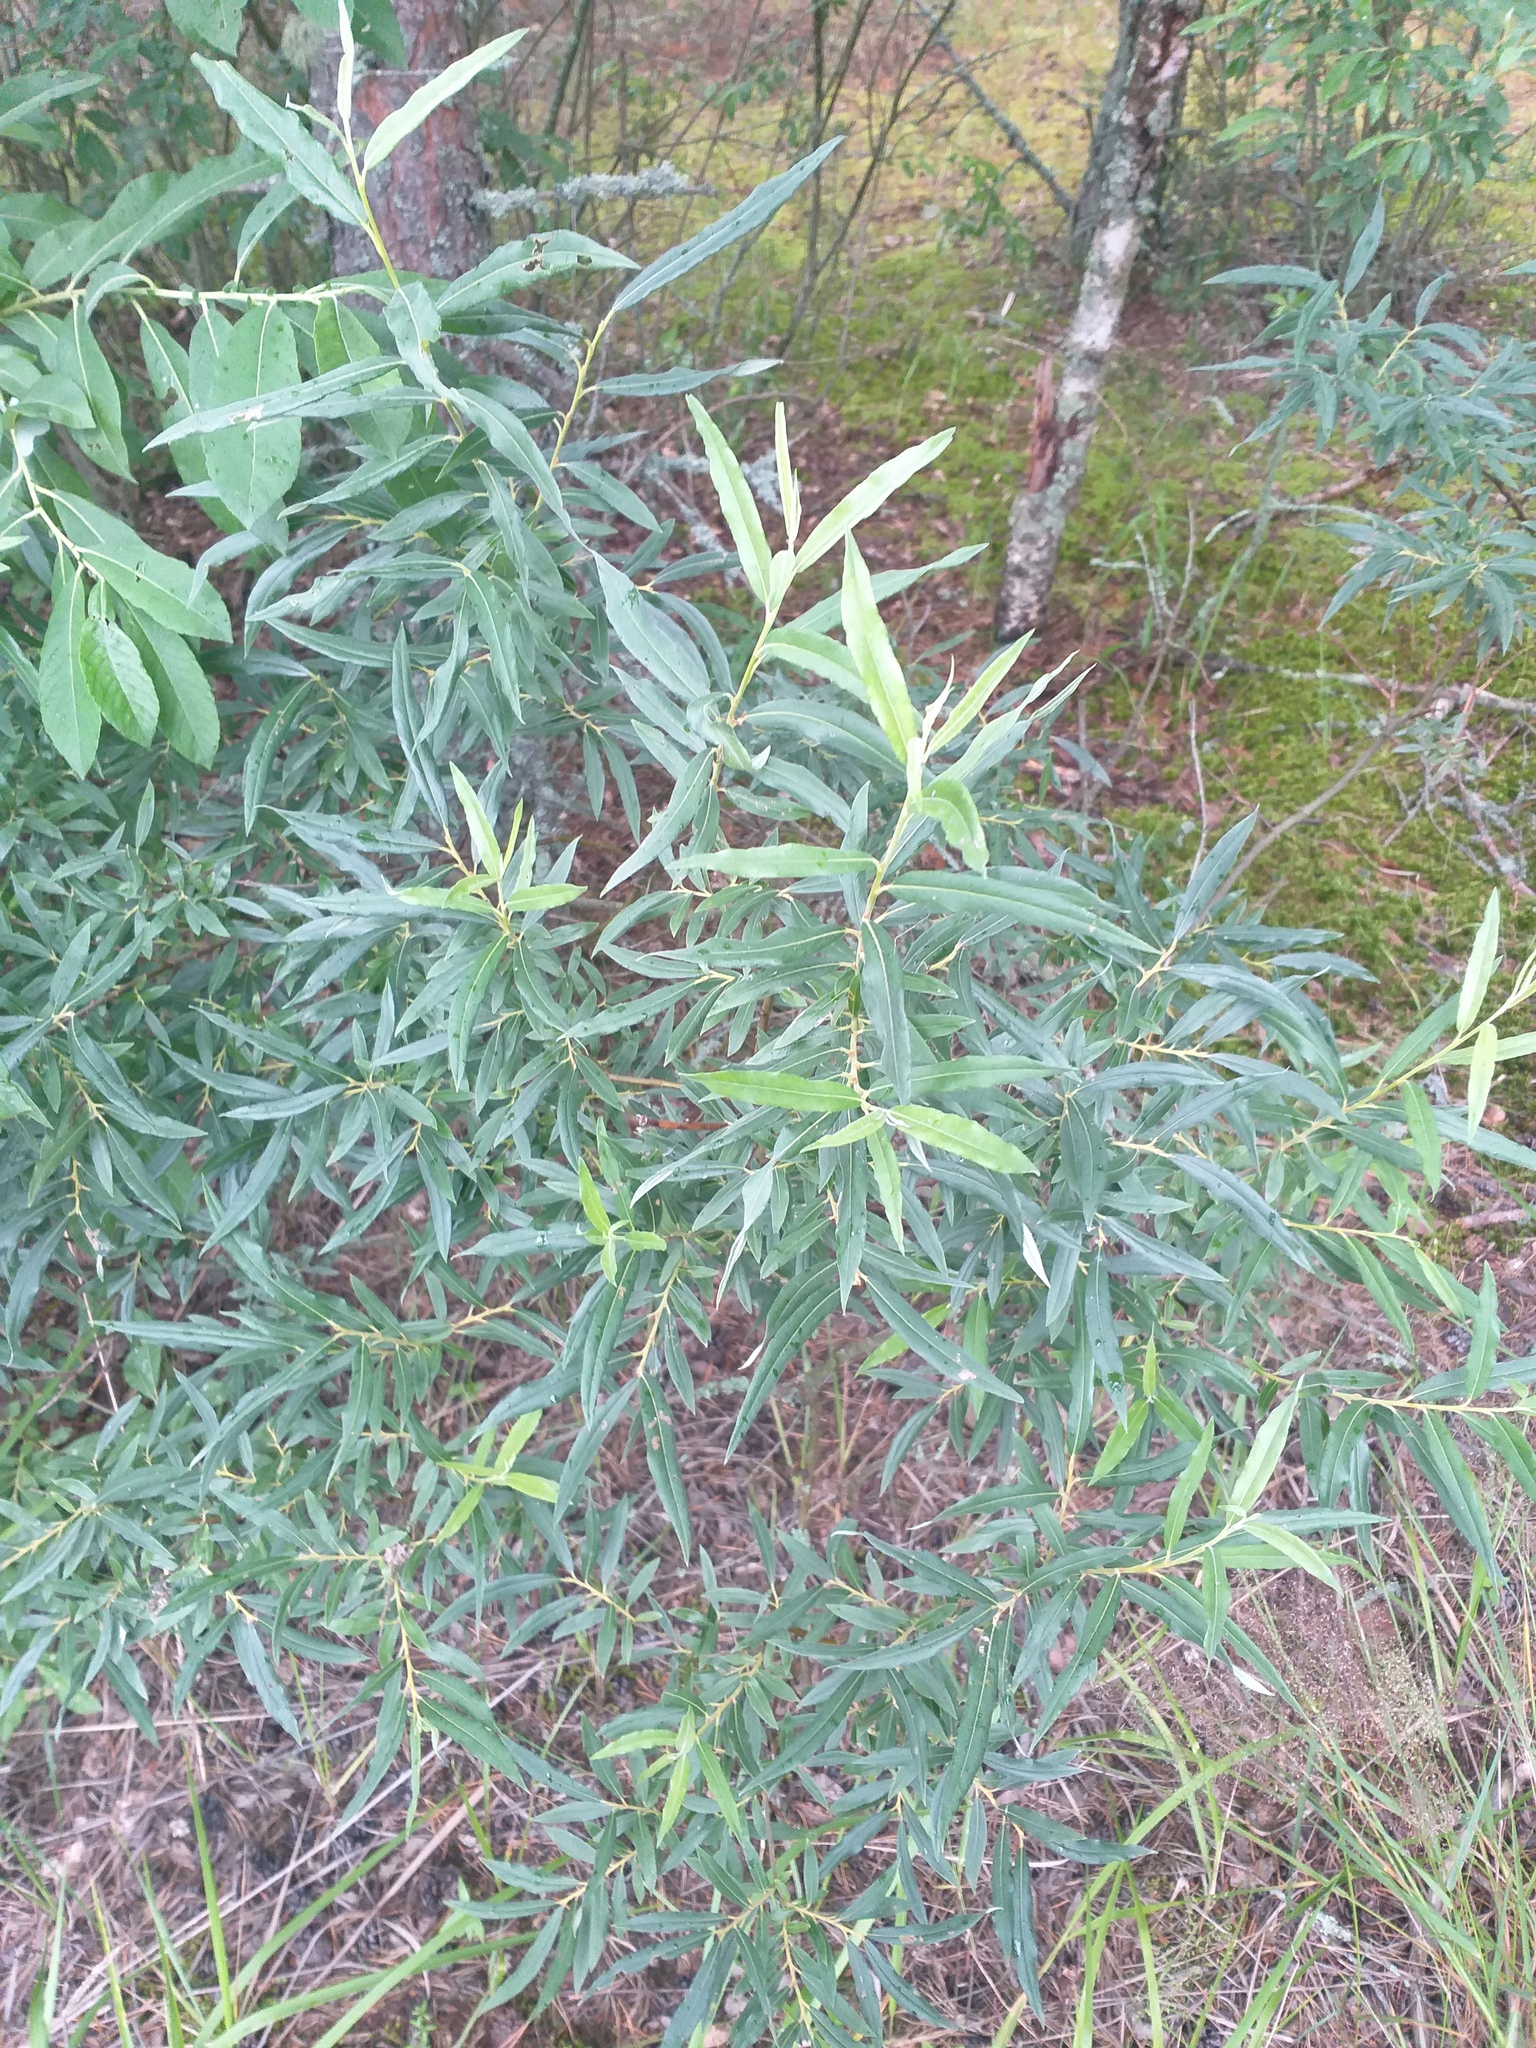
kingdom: Plantae
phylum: Tracheophyta
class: Magnoliopsida
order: Malpighiales
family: Salicaceae
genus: Salix
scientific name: Salix viminalis
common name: Osier
